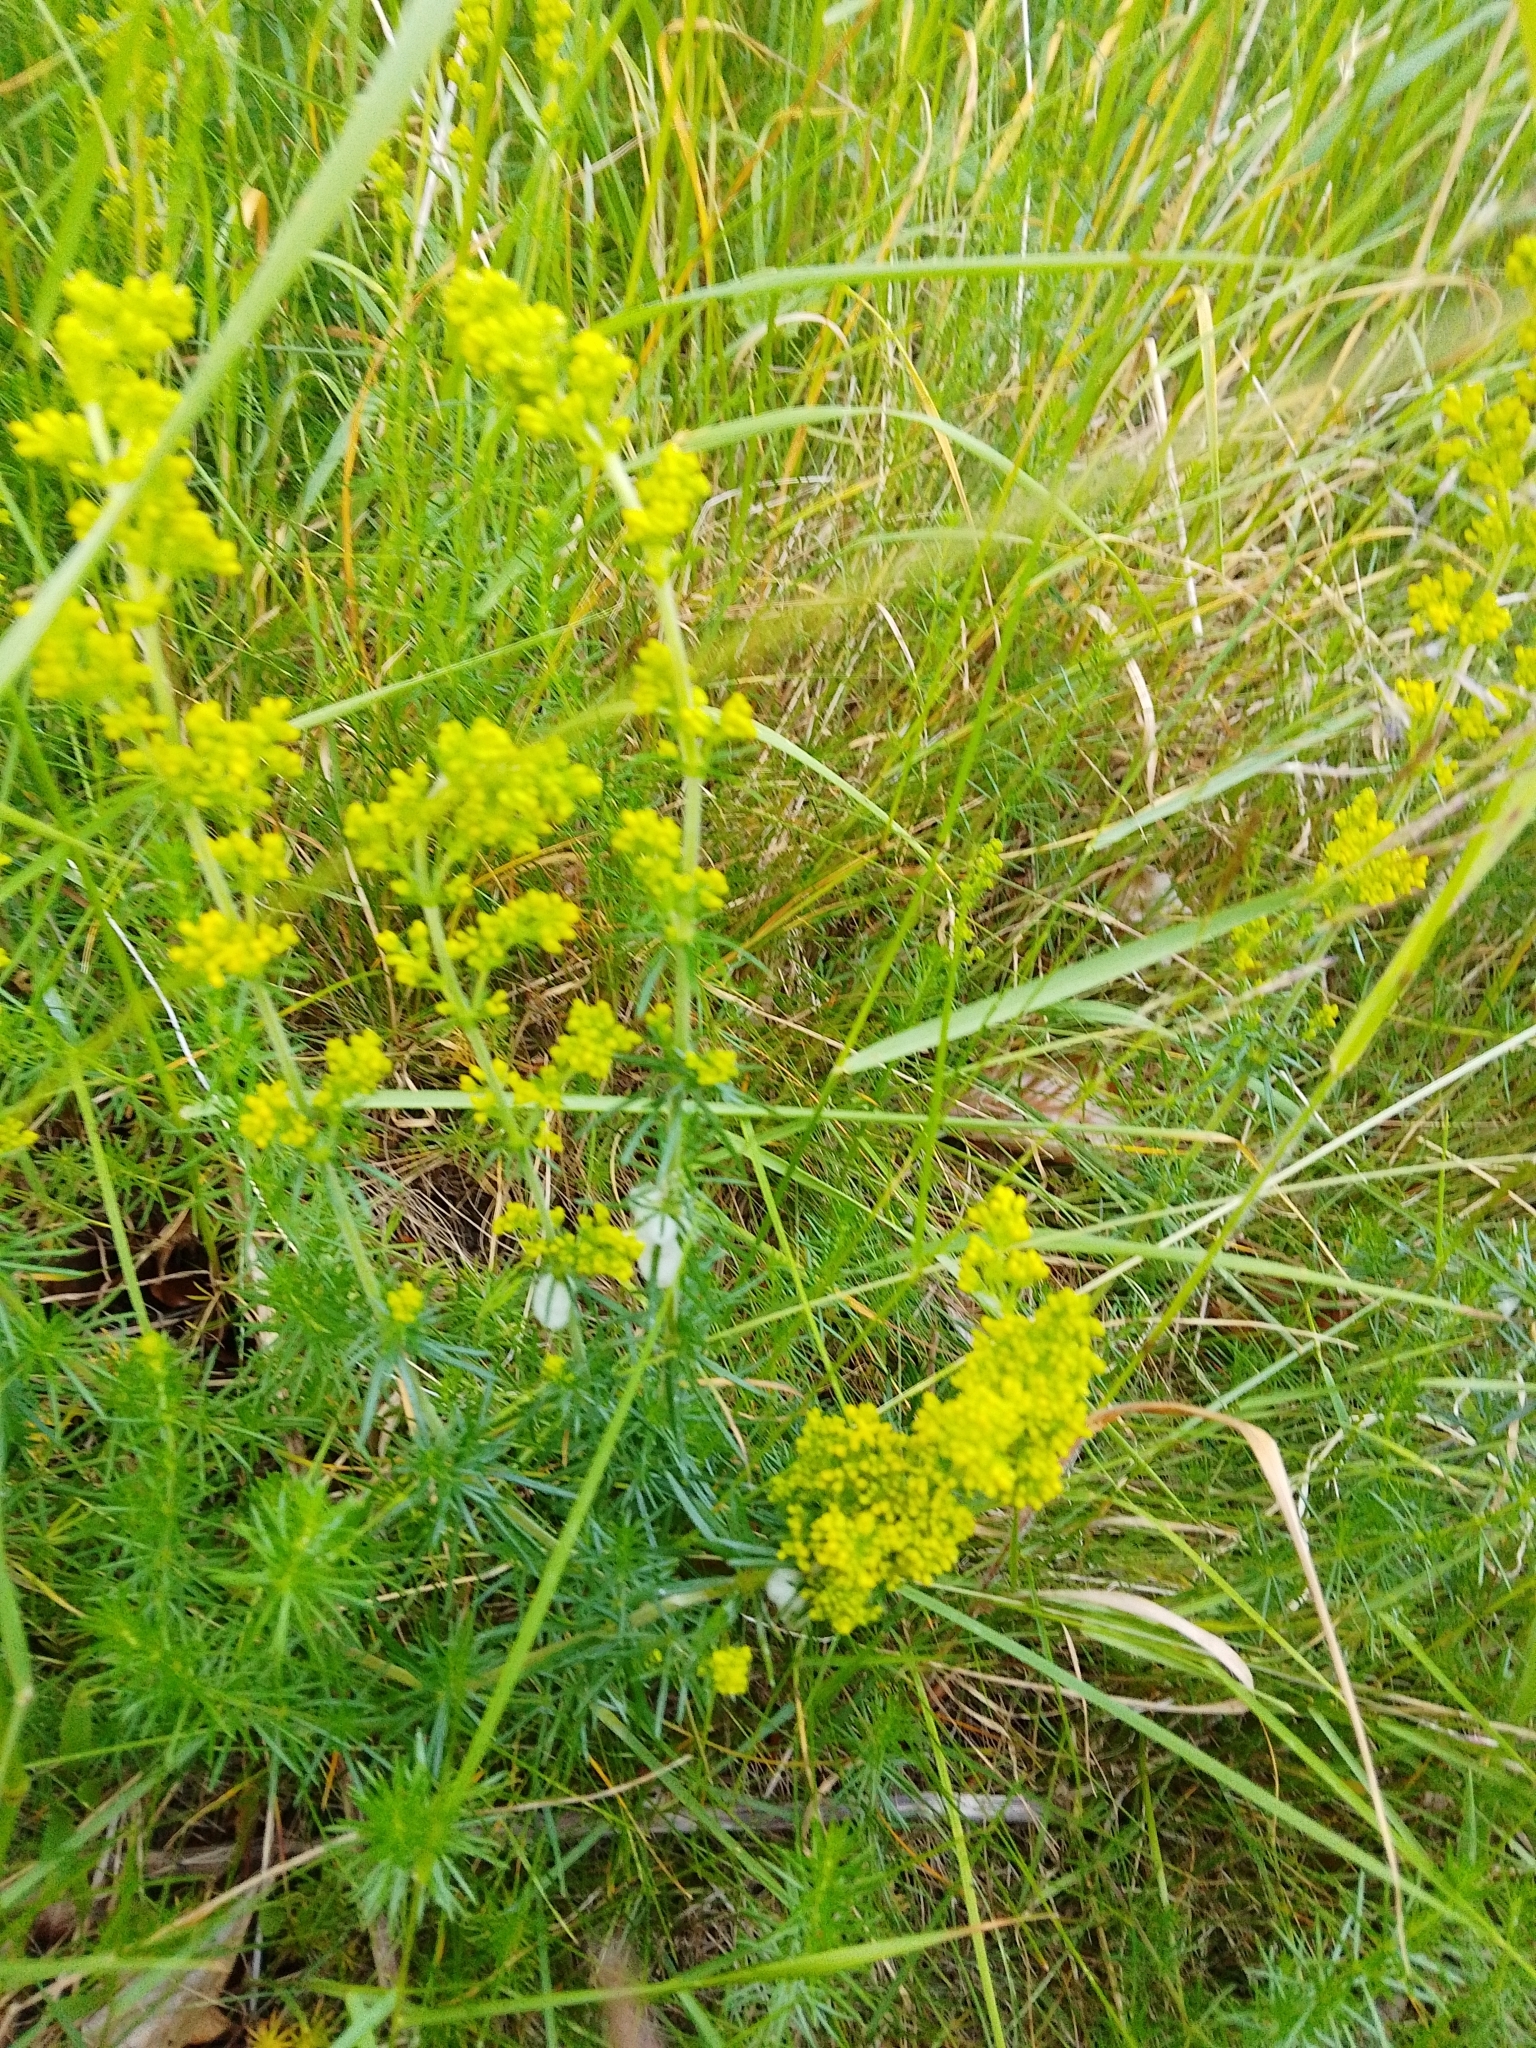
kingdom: Plantae
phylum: Tracheophyta
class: Magnoliopsida
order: Gentianales
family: Rubiaceae
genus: Galium
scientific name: Galium verum
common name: Lady's bedstraw
